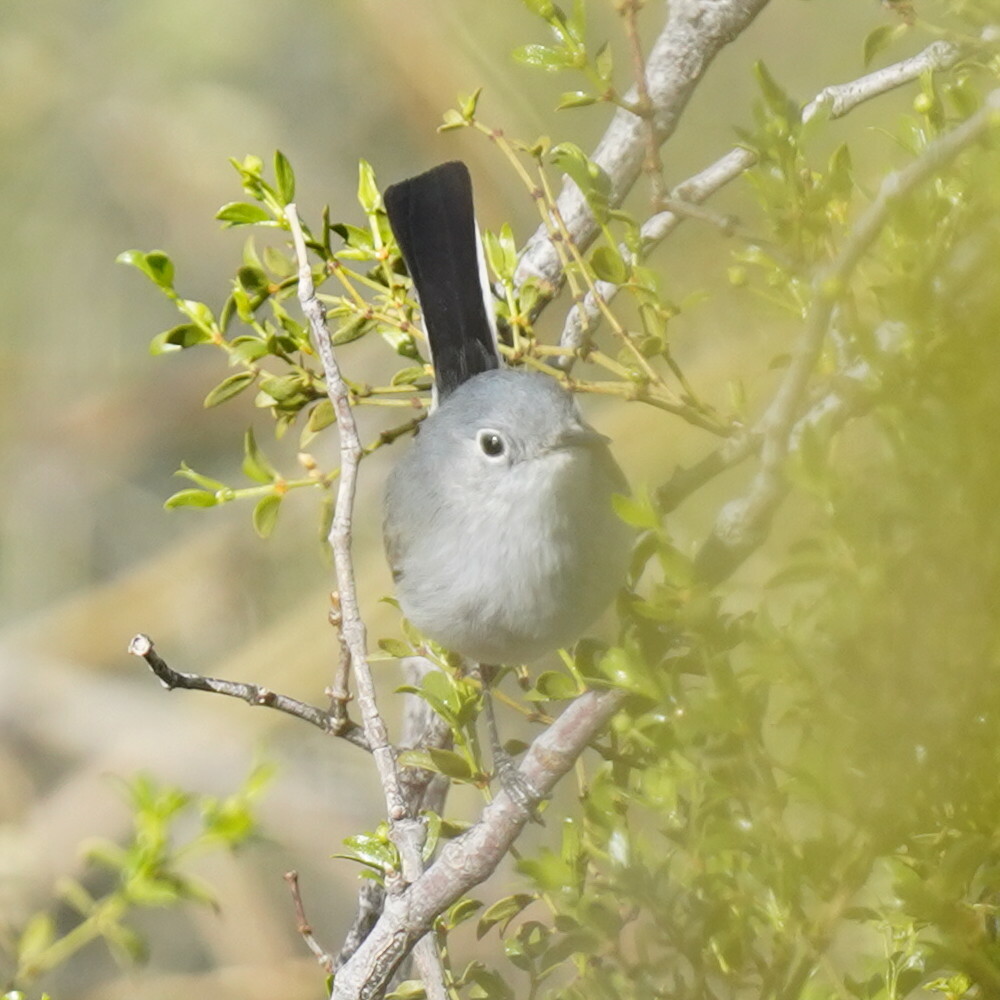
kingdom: Animalia
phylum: Chordata
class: Aves
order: Passeriformes
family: Polioptilidae
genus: Polioptila
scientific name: Polioptila melanura
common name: Black-tailed gnatcatcher
